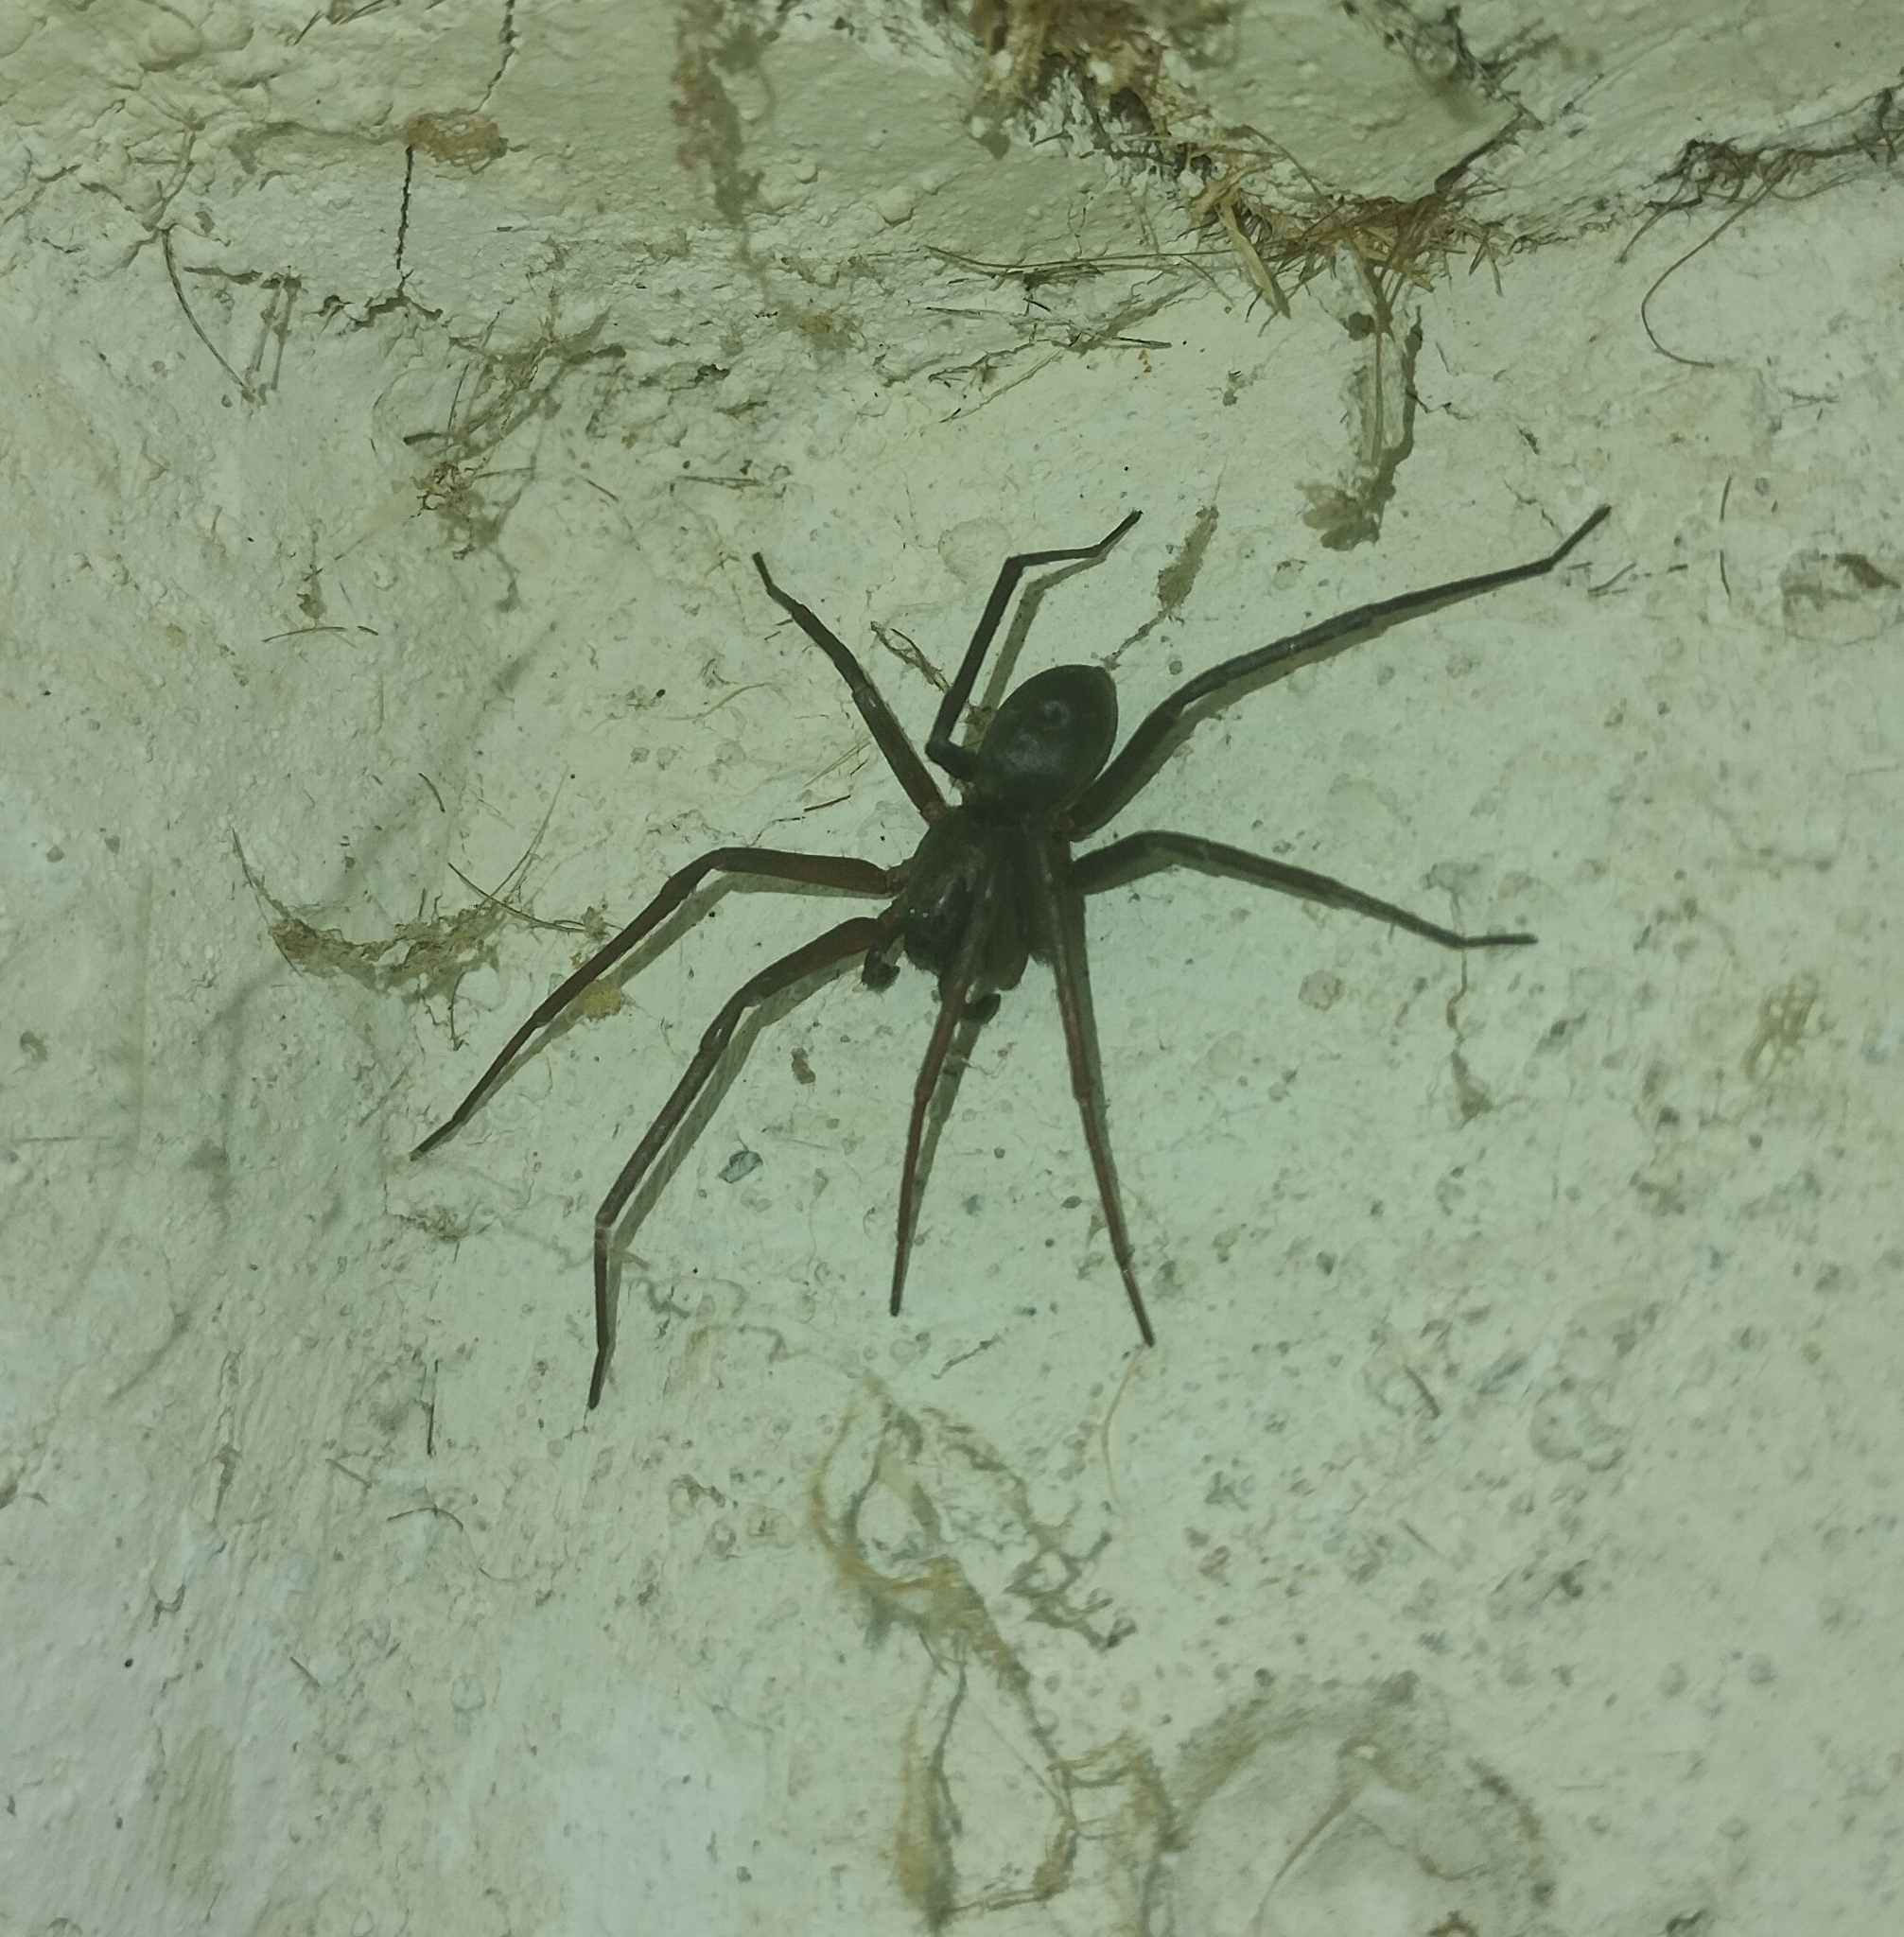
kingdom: Animalia
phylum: Arthropoda
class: Arachnida
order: Araneae
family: Liocranidae
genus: Sagana
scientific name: Sagana rutilans
